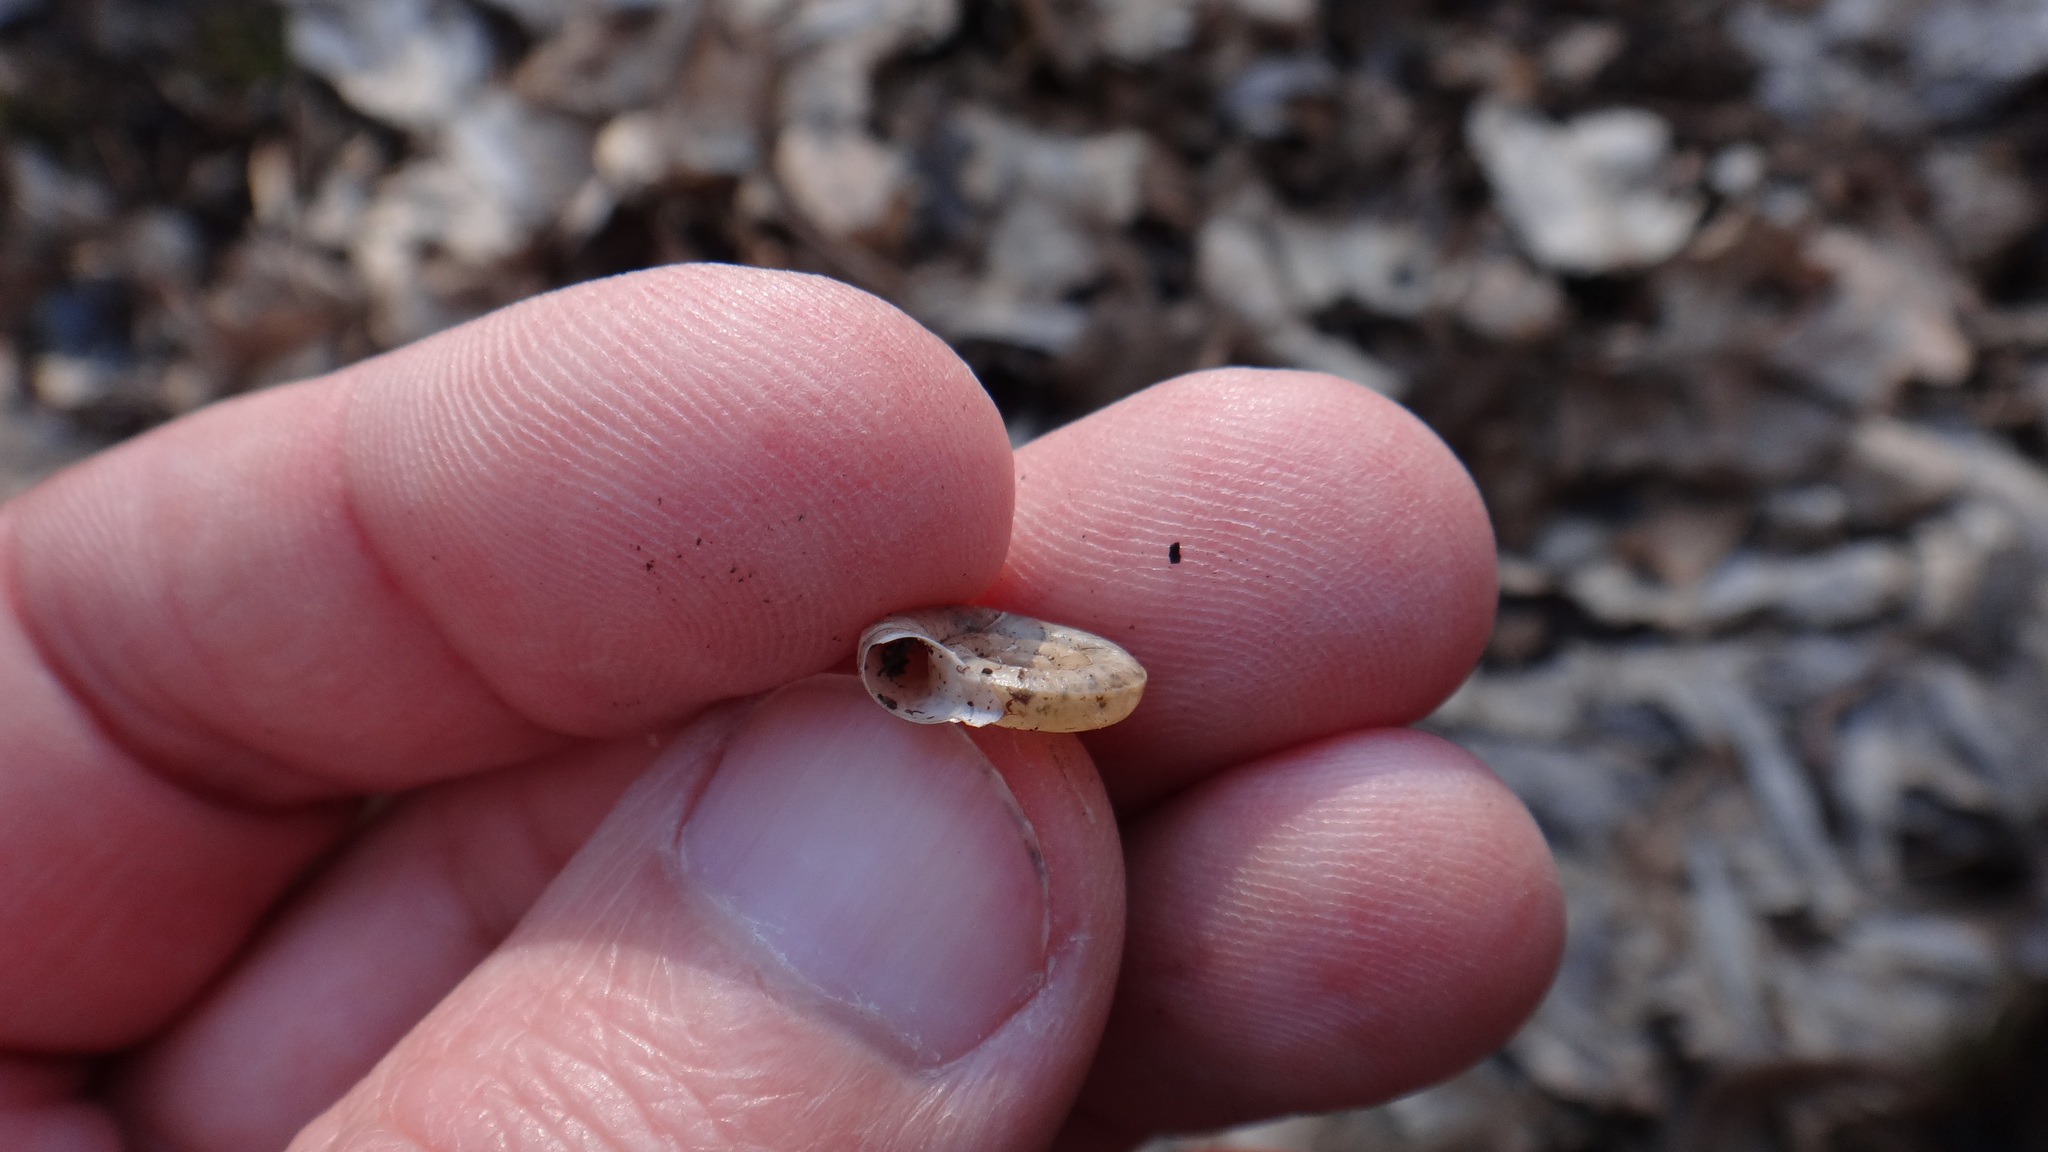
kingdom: Animalia
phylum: Mollusca
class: Gastropoda
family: Planorbidae
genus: Planorbis
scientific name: Planorbis planorbis
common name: Margined ramshorn
